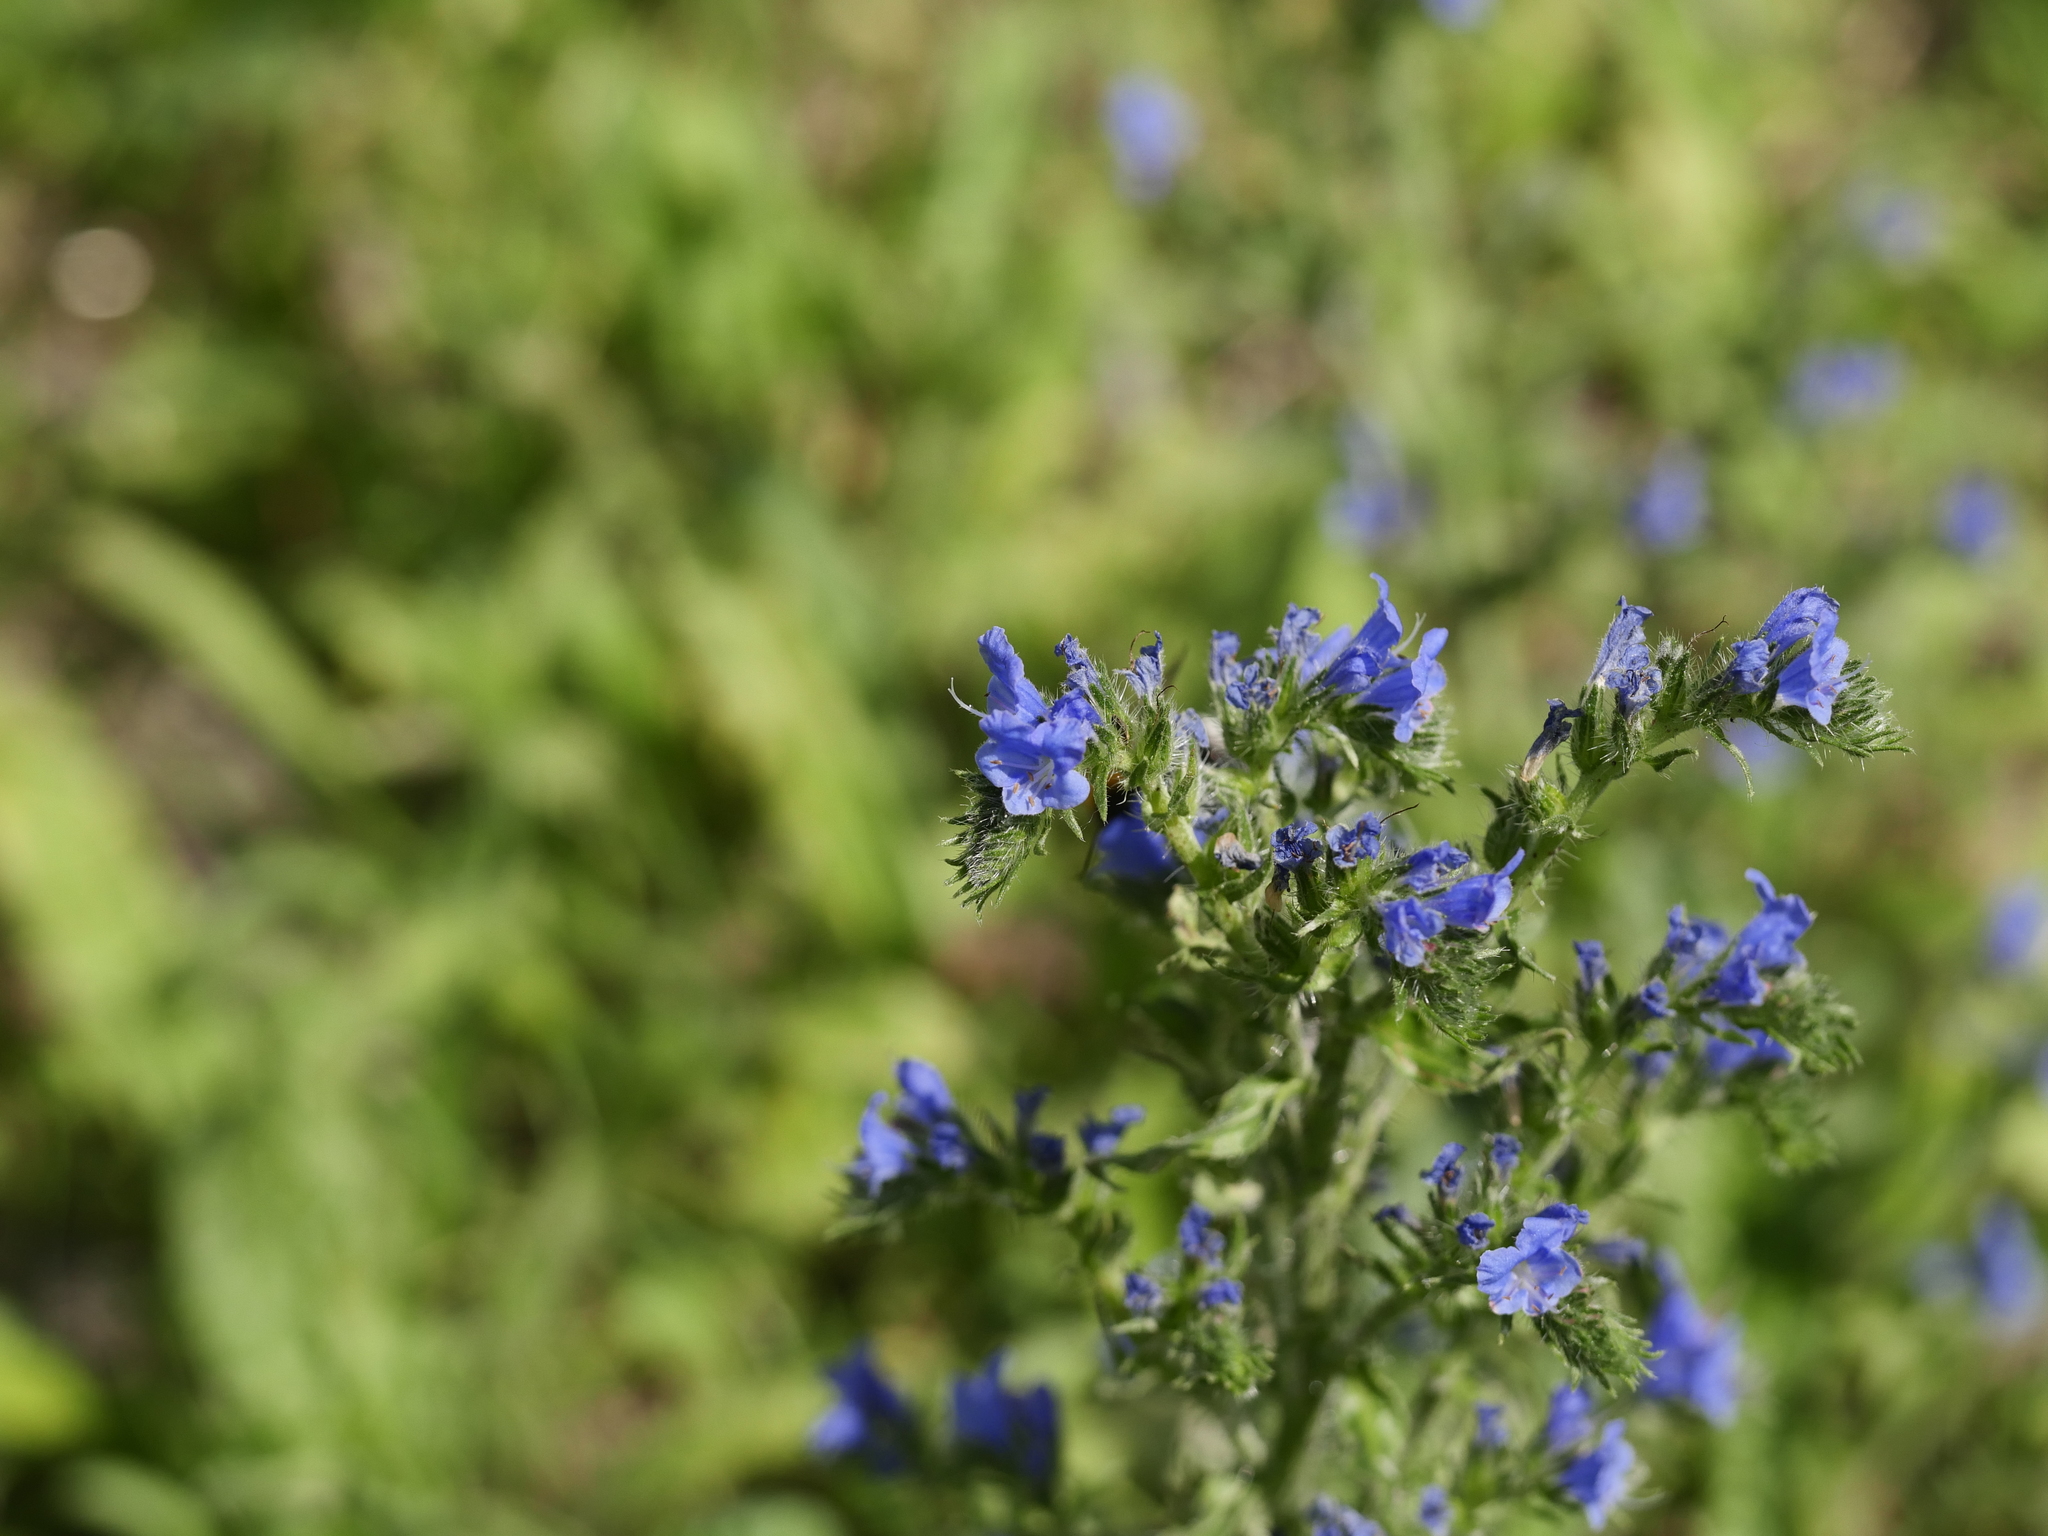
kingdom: Plantae
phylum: Tracheophyta
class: Magnoliopsida
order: Boraginales
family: Boraginaceae
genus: Echium
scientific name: Echium vulgare
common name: Common viper's bugloss
